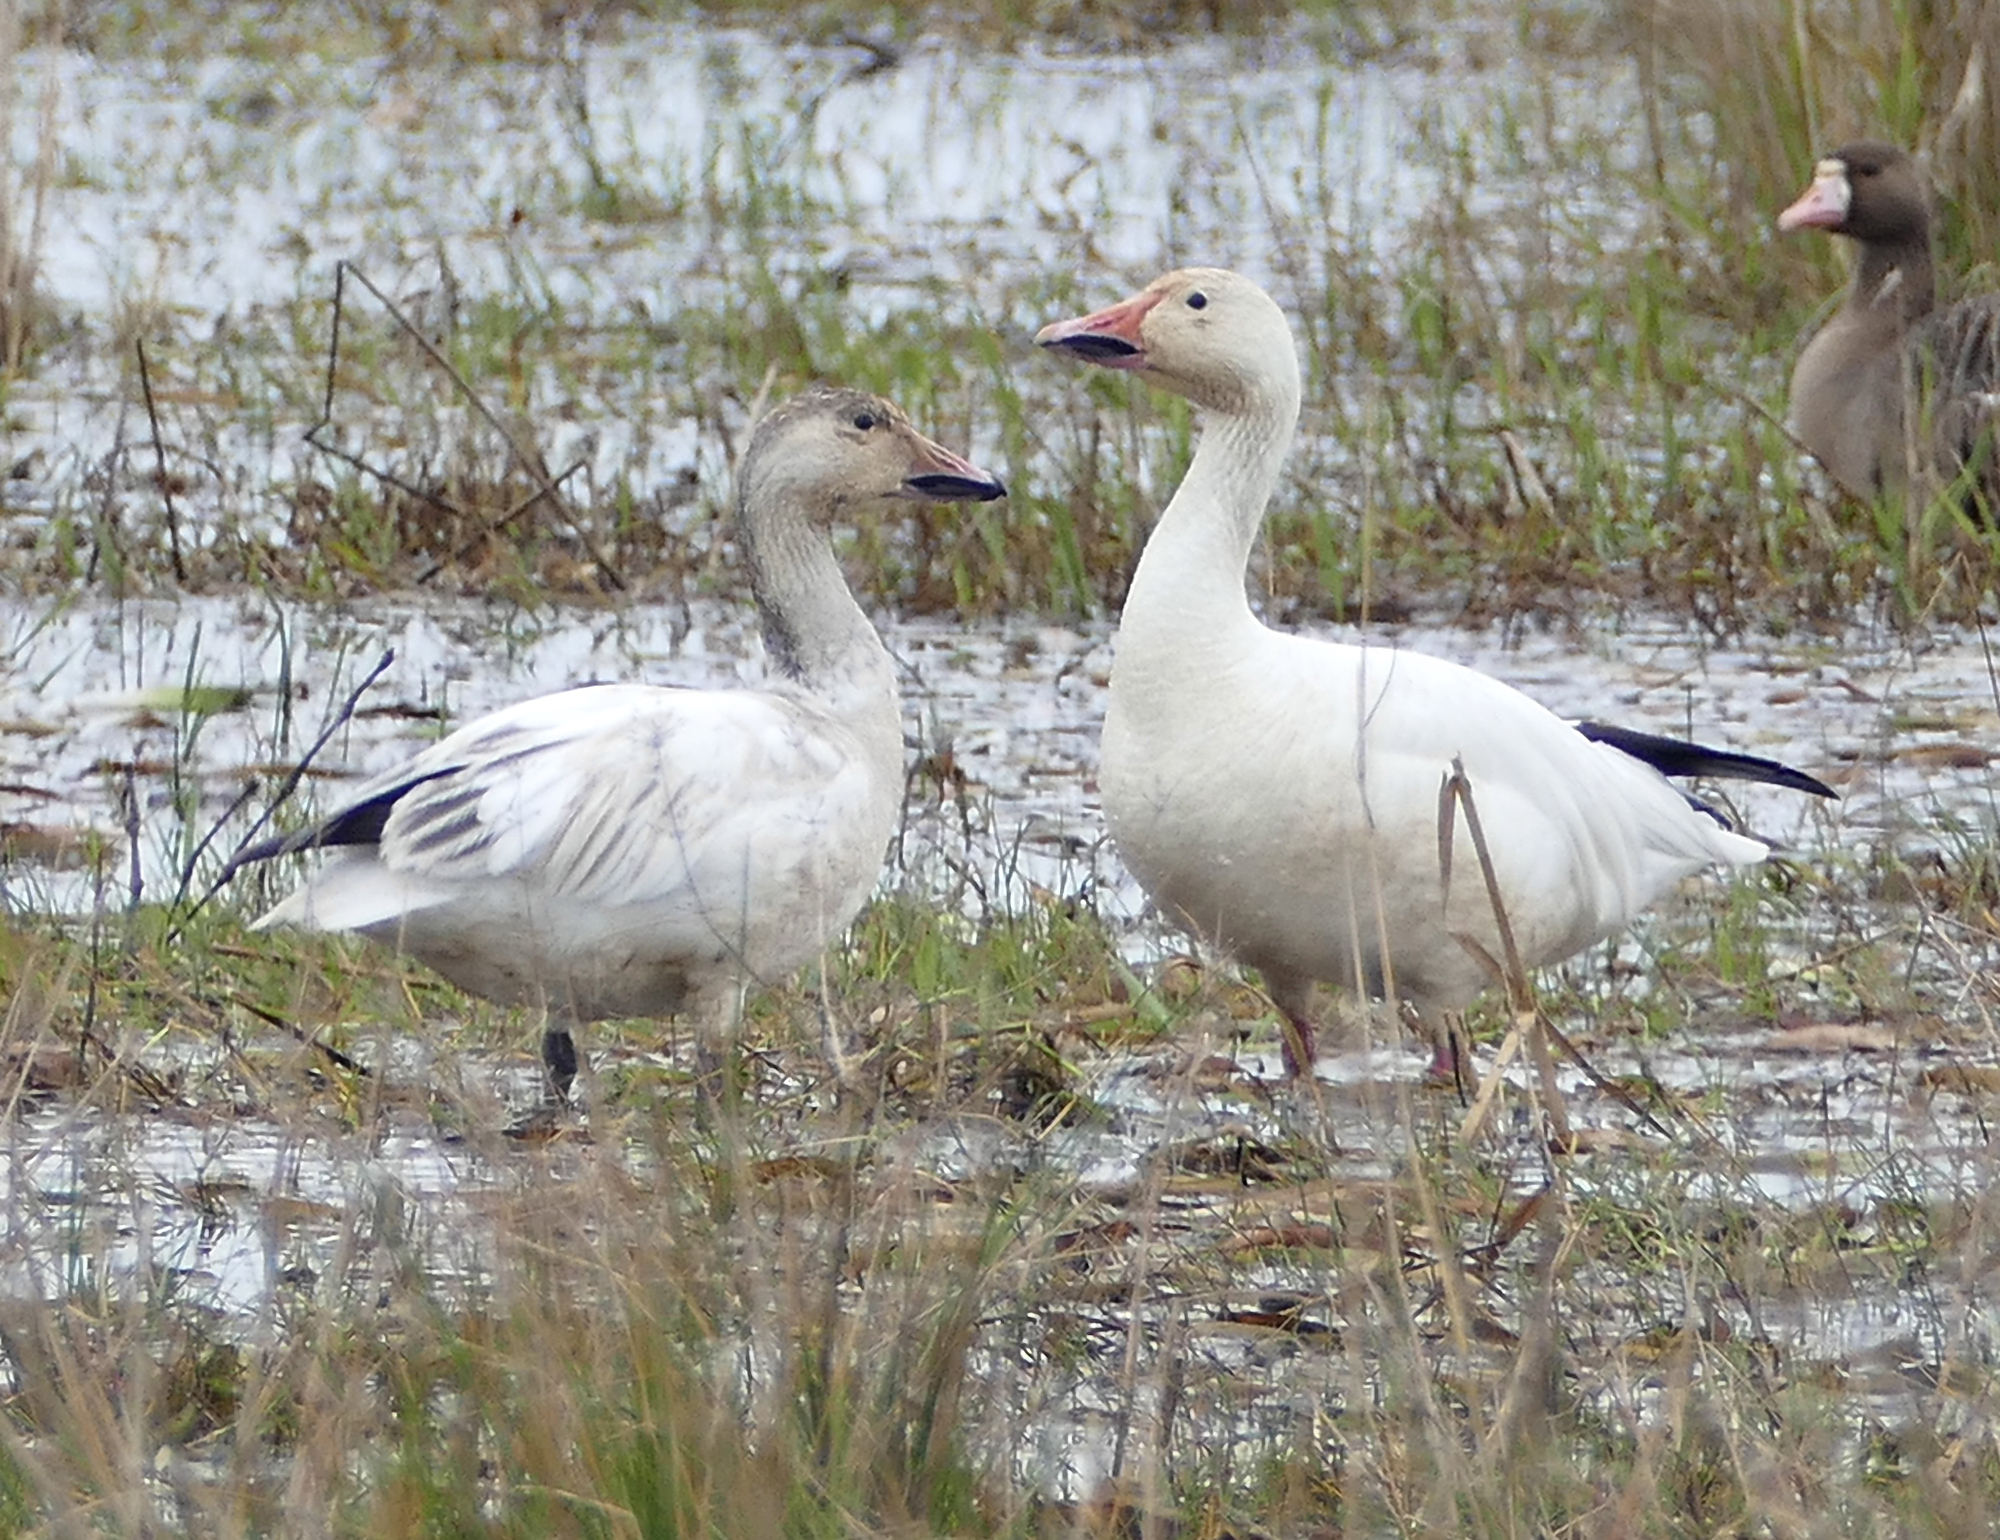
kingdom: Animalia
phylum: Chordata
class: Aves
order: Anseriformes
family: Anatidae
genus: Anser
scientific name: Anser caerulescens
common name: Snow goose
